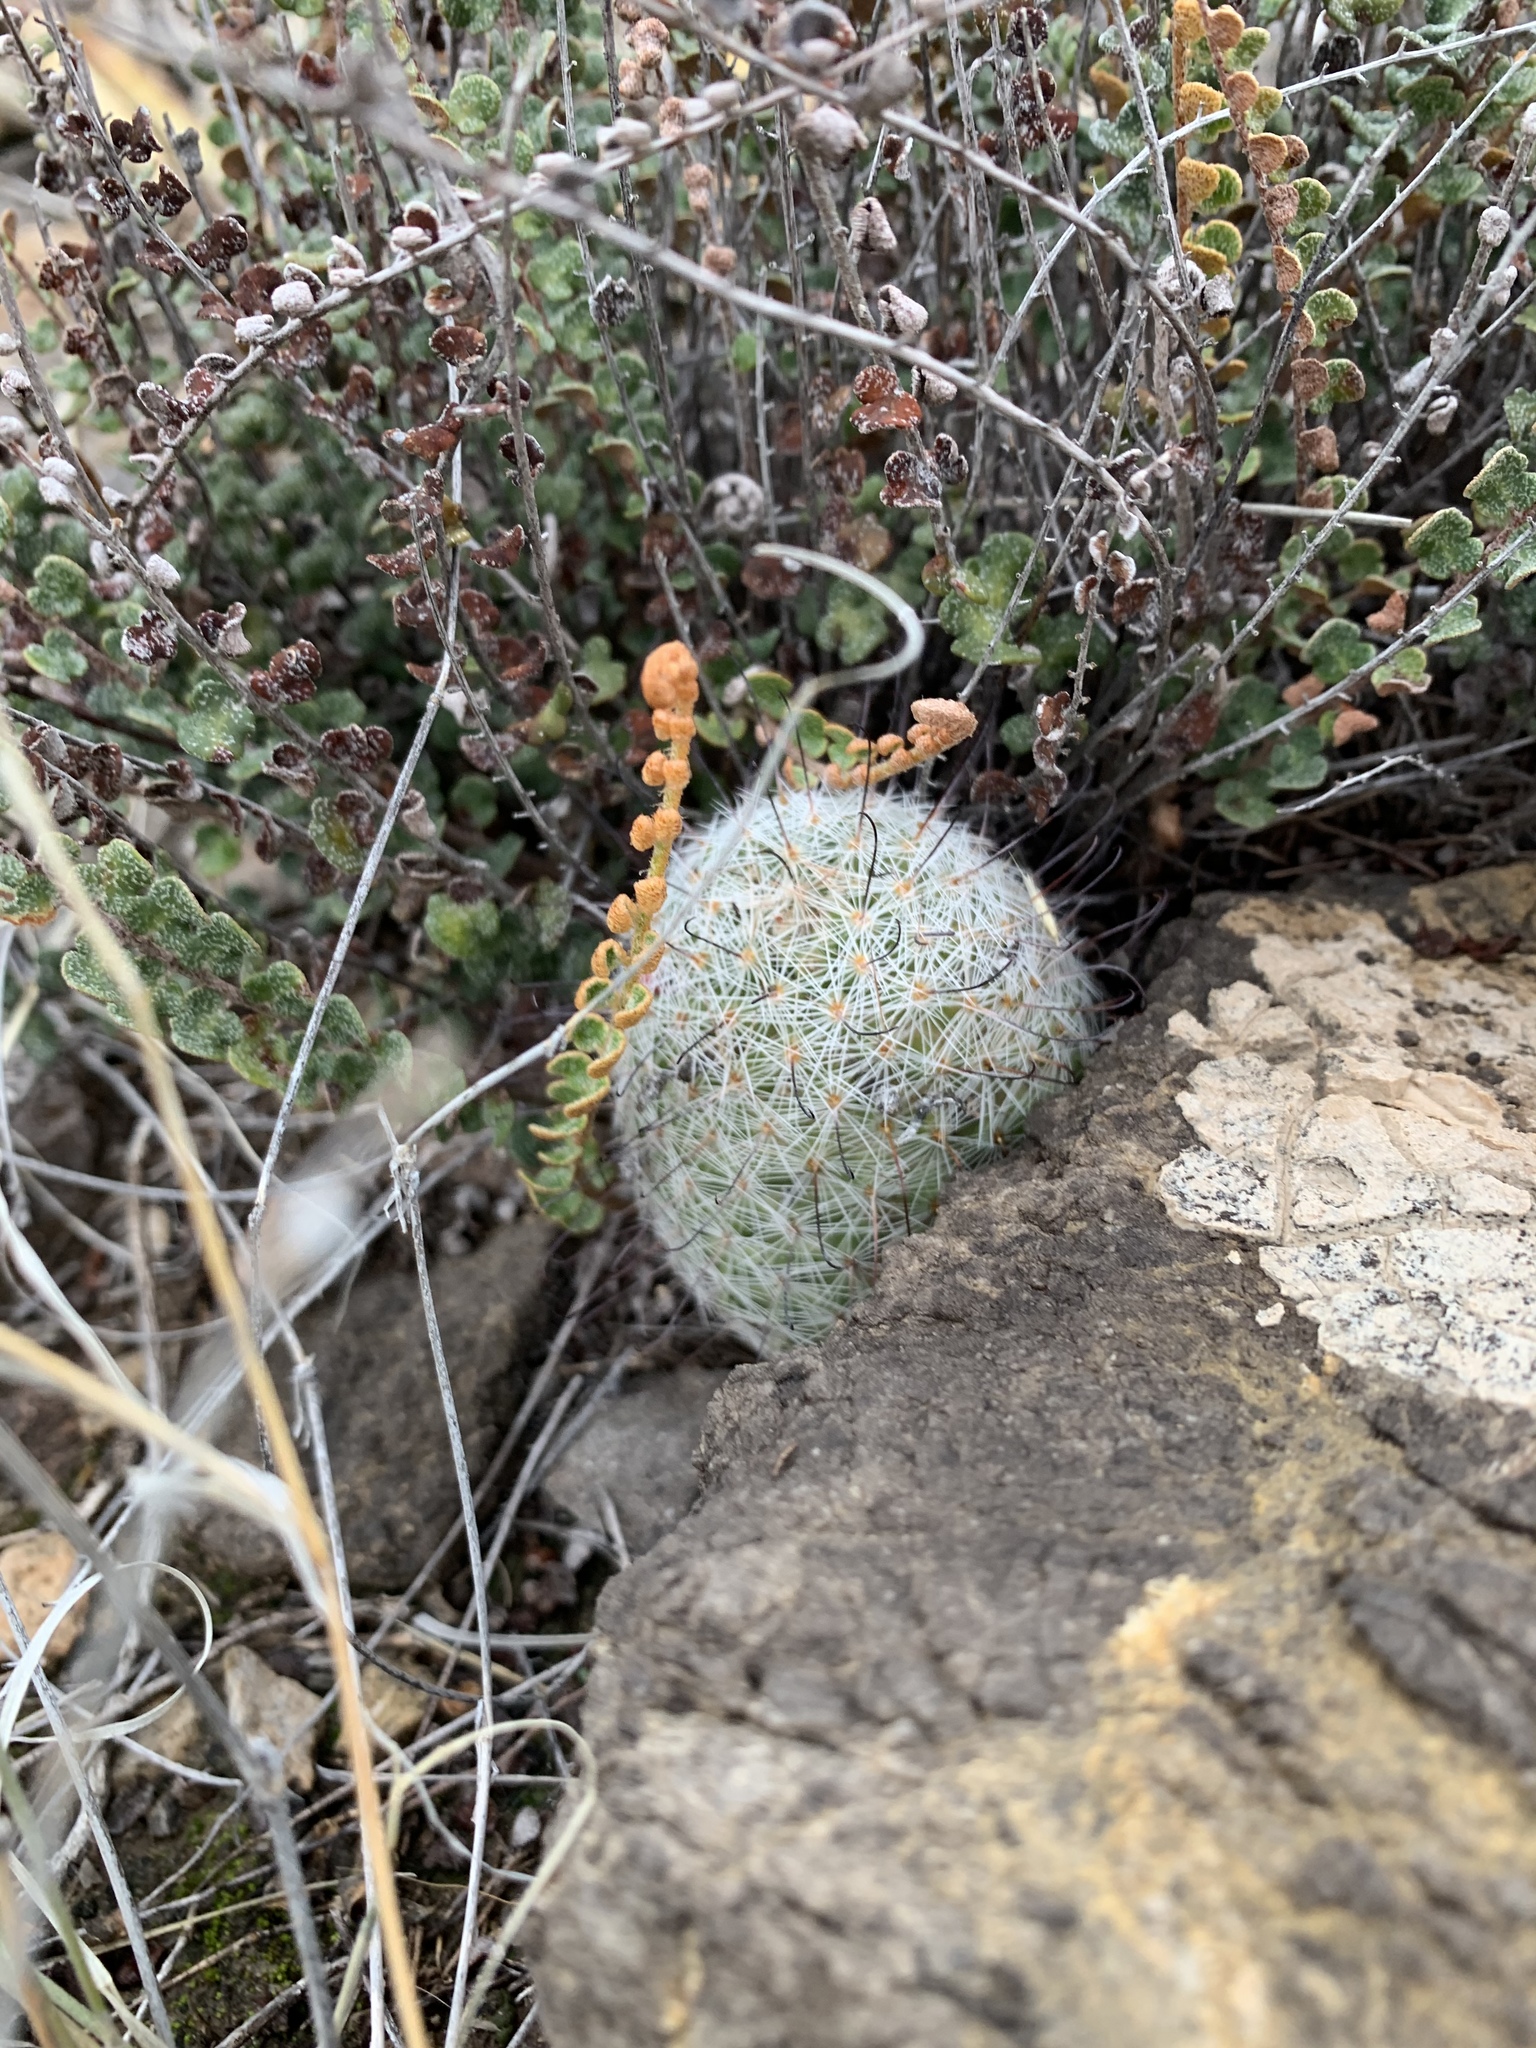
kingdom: Plantae
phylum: Tracheophyta
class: Magnoliopsida
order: Caryophyllales
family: Cactaceae
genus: Cochemiea
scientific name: Cochemiea grahamii
